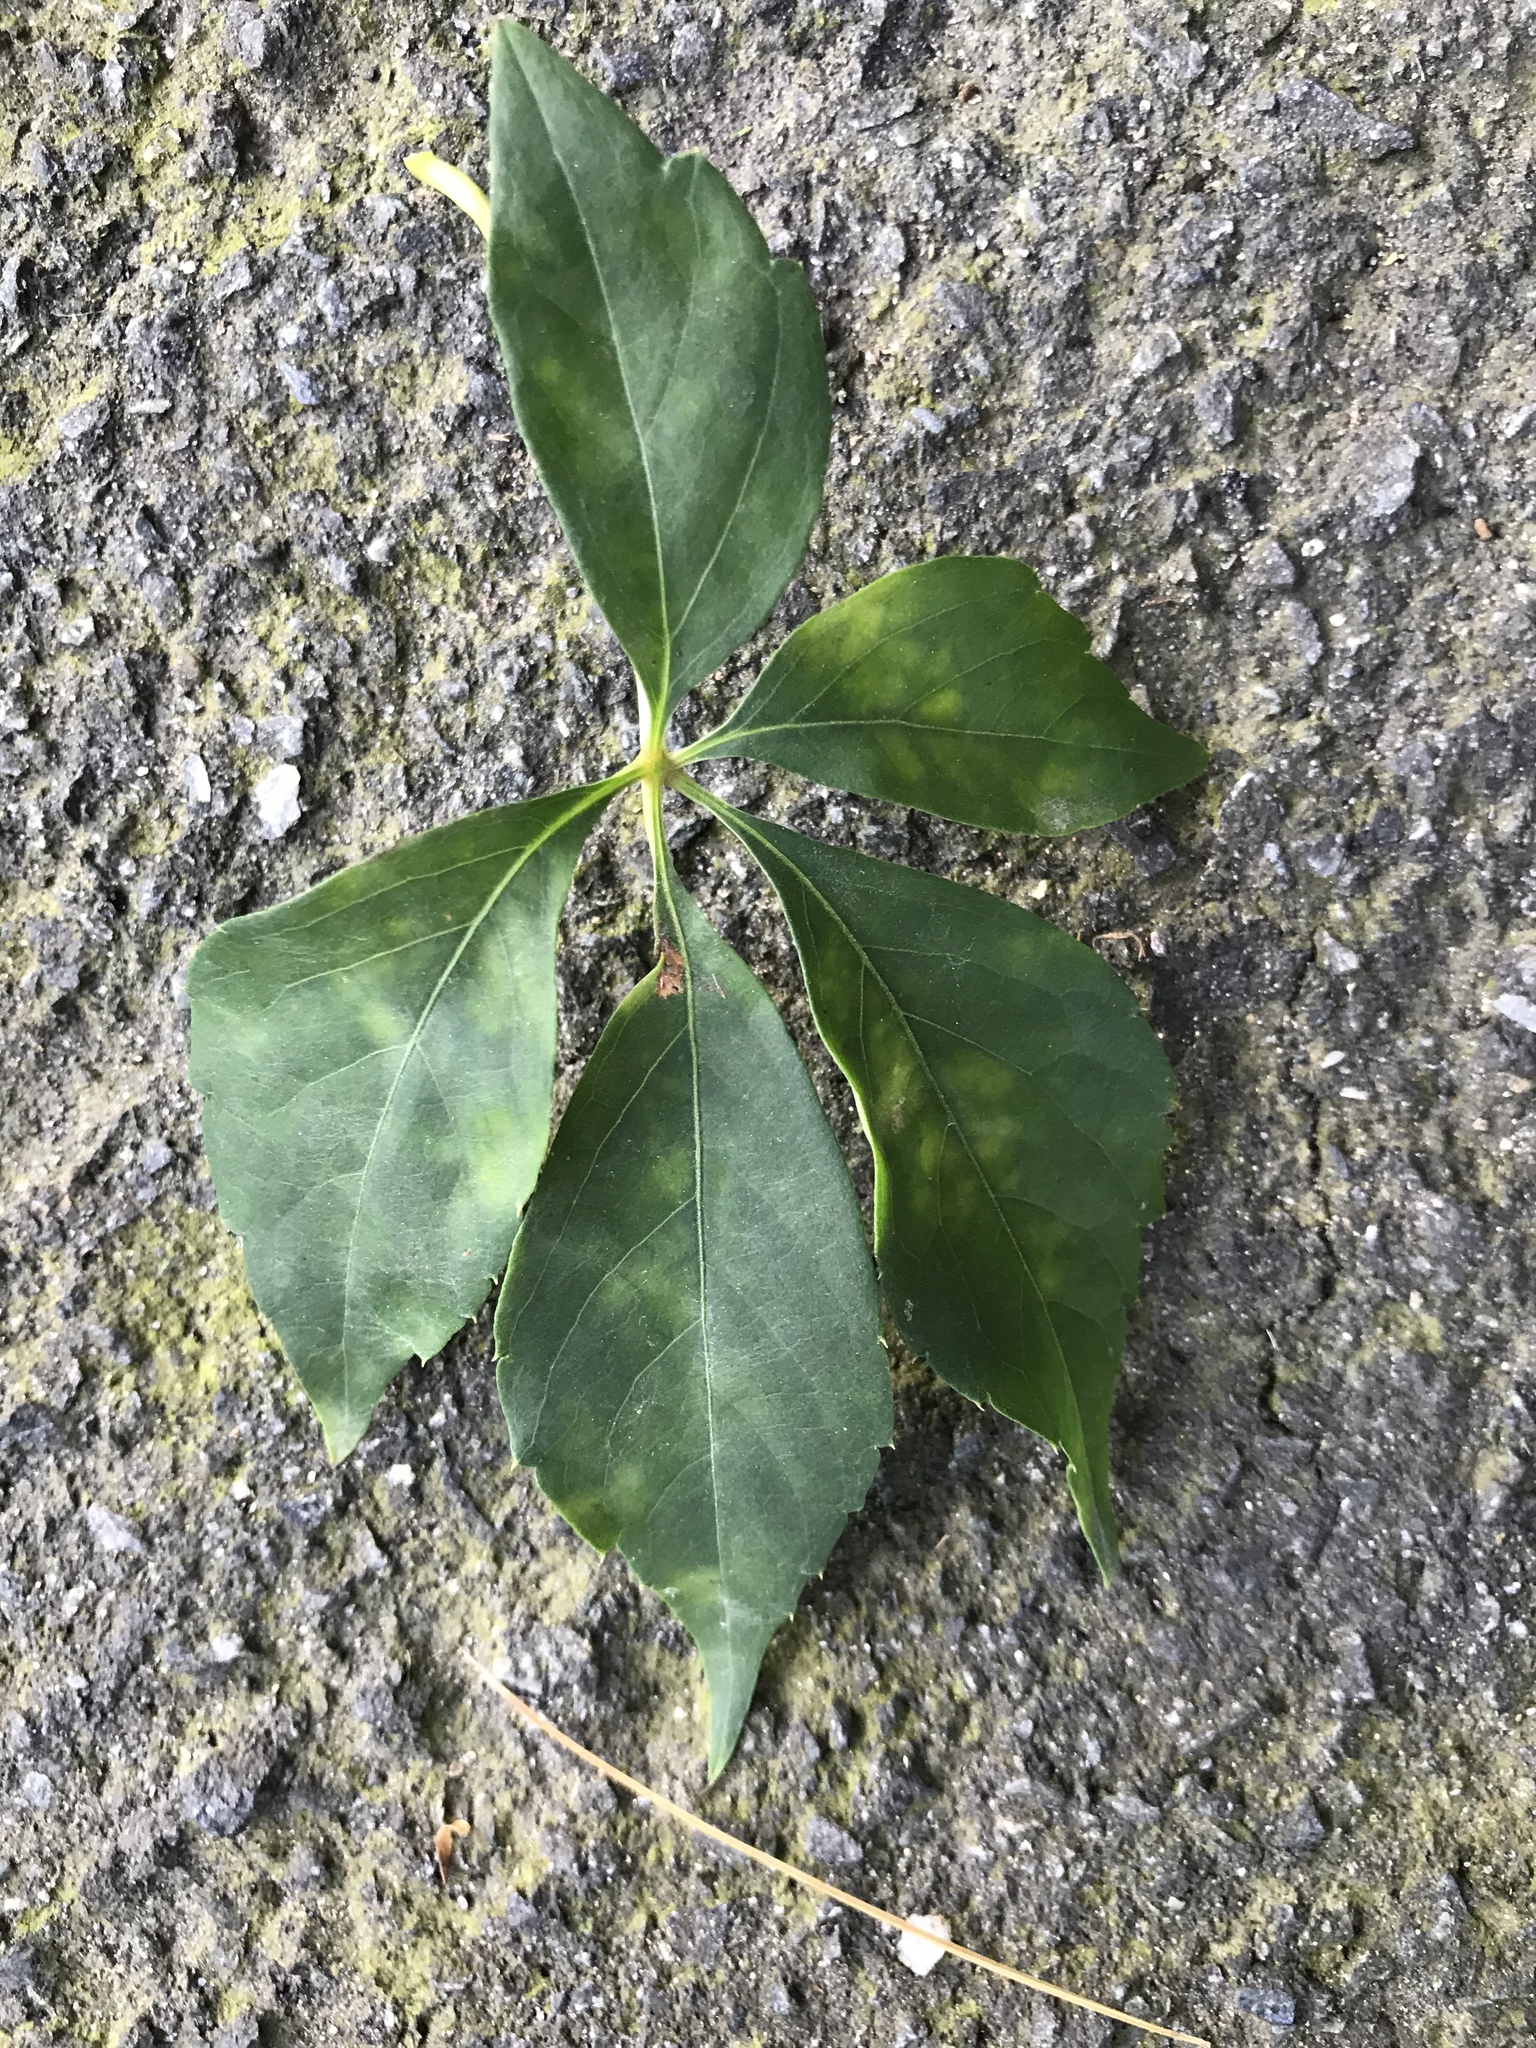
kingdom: Plantae
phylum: Tracheophyta
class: Magnoliopsida
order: Vitales
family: Vitaceae
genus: Parthenocissus
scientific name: Parthenocissus quinquefolia
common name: Virginia-creeper
